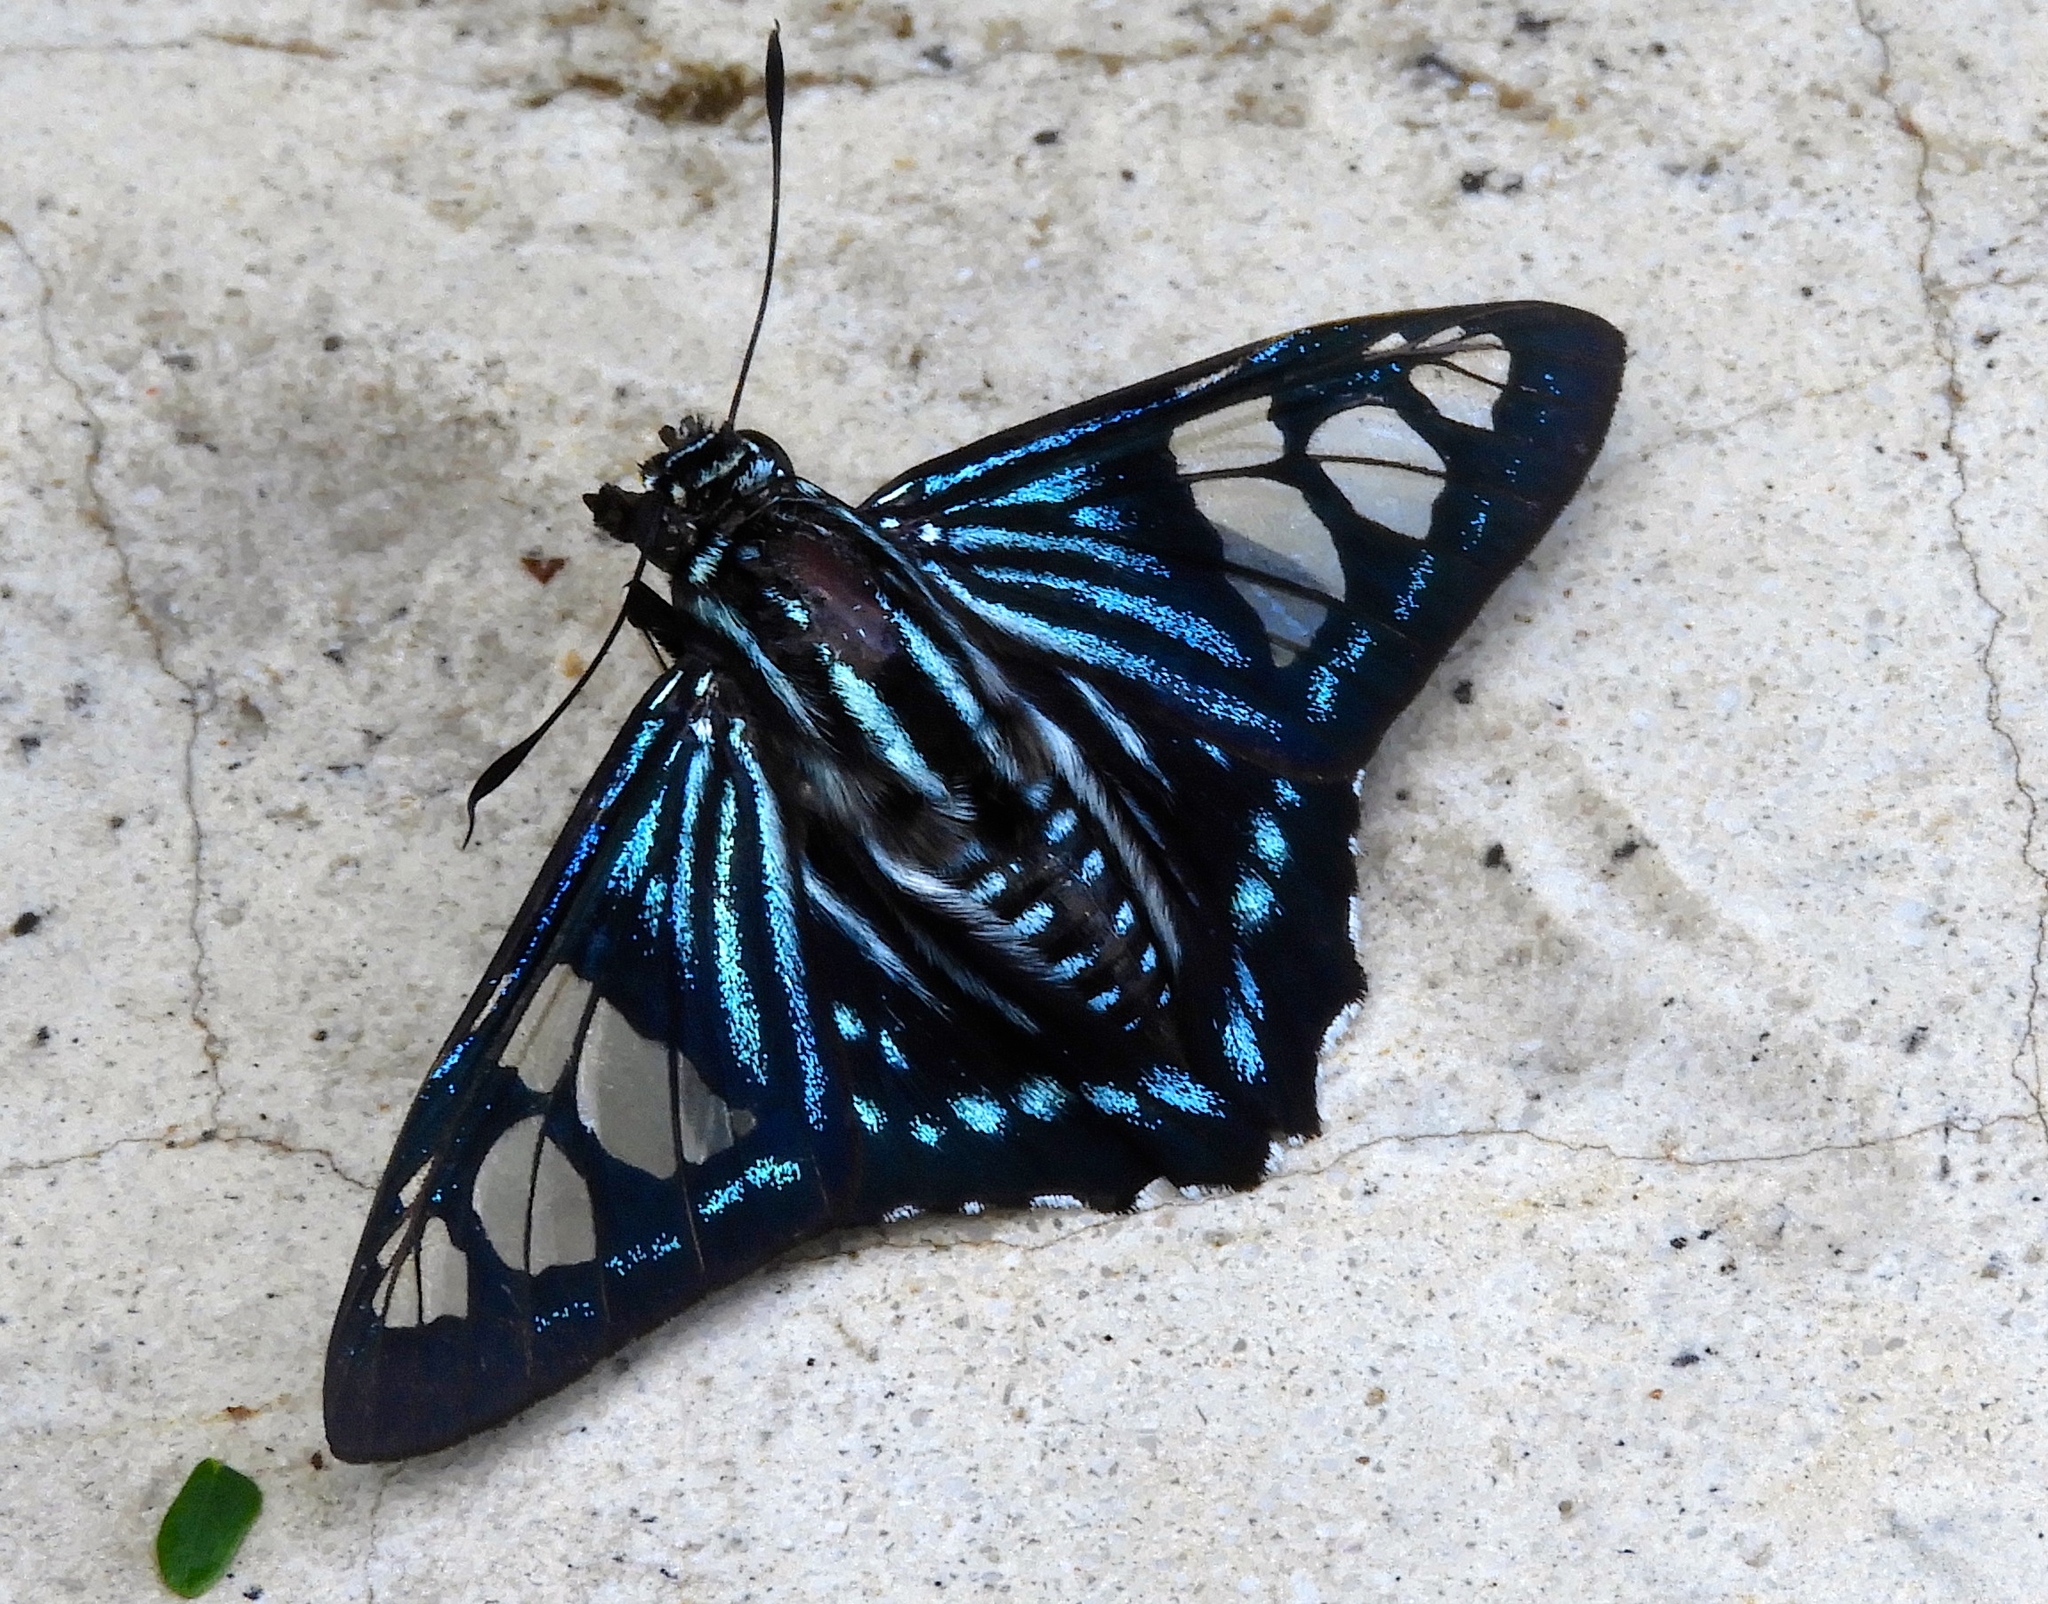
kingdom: Animalia
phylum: Arthropoda
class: Insecta
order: Lepidoptera
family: Hesperiidae
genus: Phocides
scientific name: Phocides pigmalion
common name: Mangrove skipper
